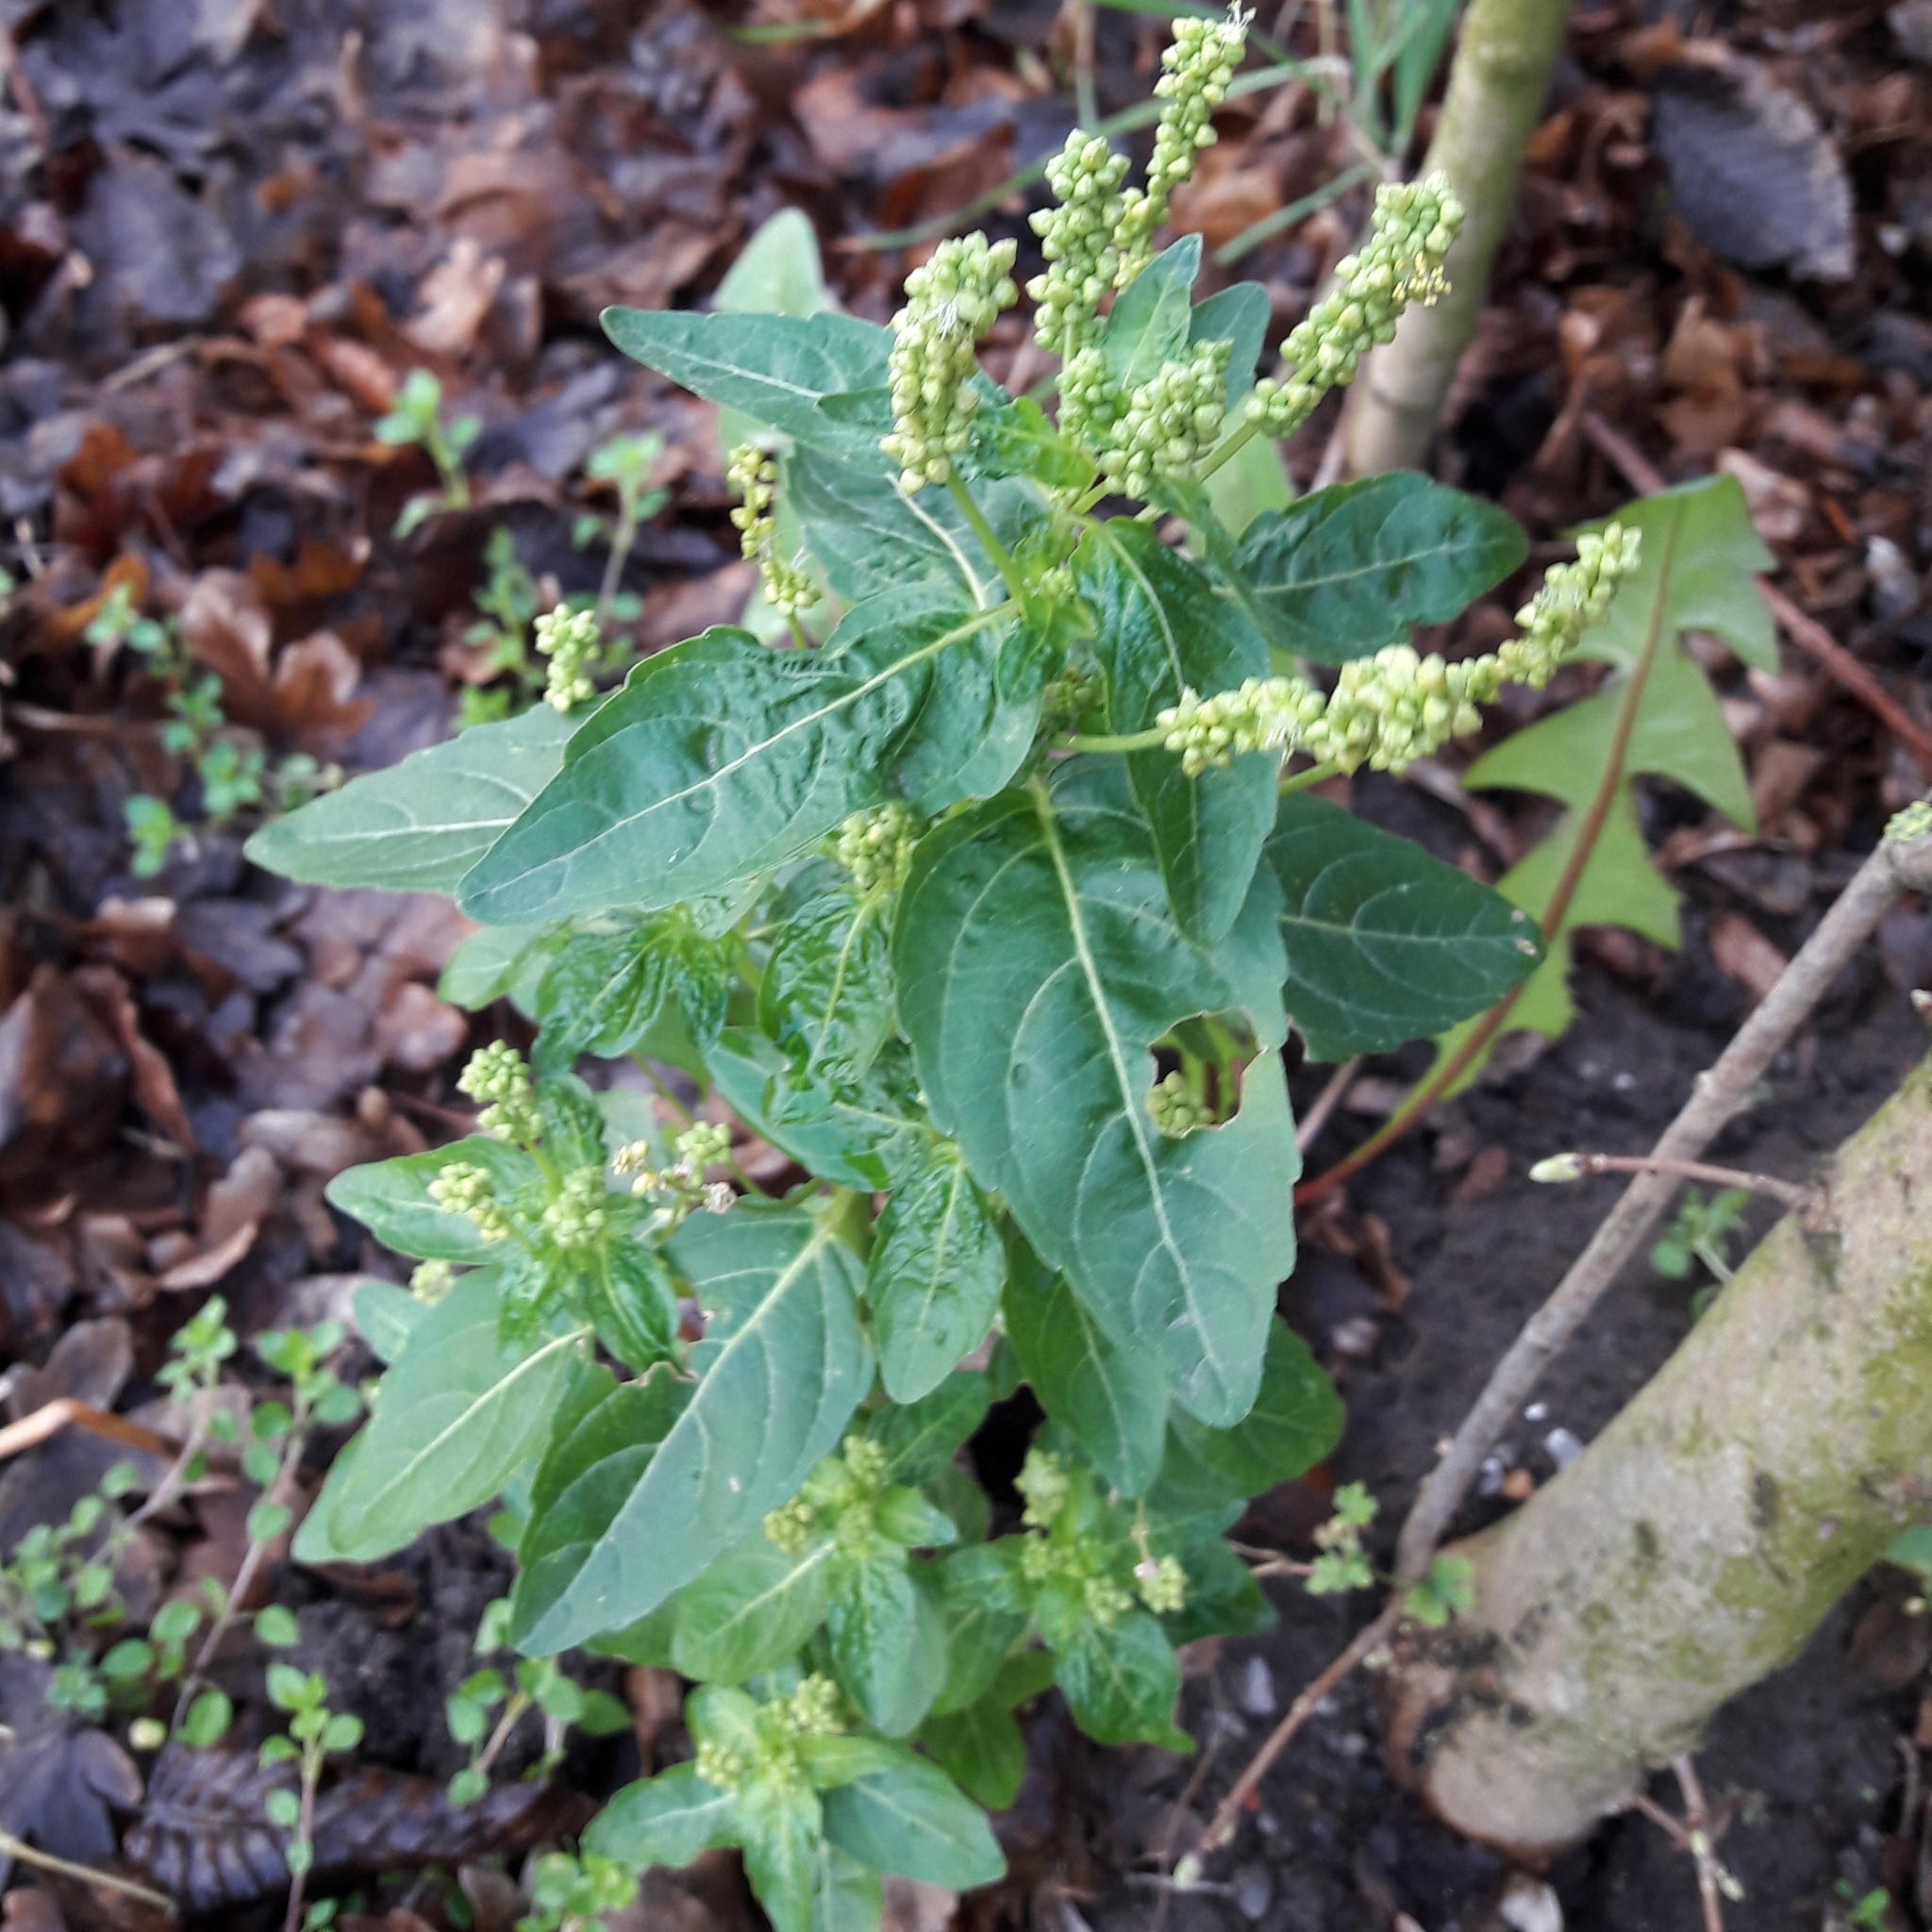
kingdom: Plantae
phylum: Tracheophyta
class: Magnoliopsida
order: Malpighiales
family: Euphorbiaceae
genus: Mercurialis
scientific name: Mercurialis annua
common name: Annual mercury
